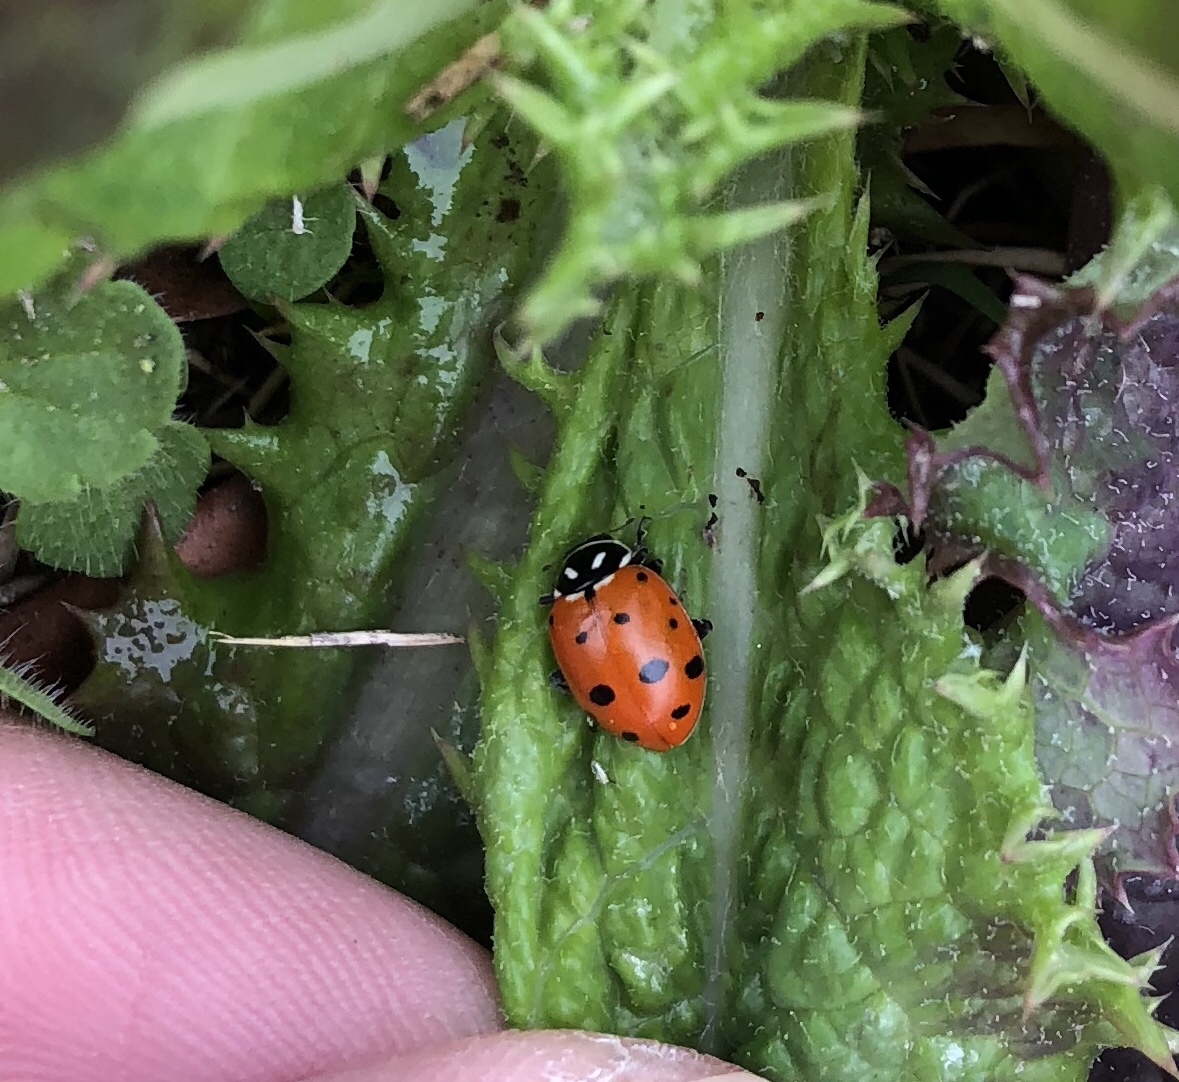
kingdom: Animalia
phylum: Arthropoda
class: Insecta
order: Coleoptera
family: Coccinellidae
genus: Hippodamia
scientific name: Hippodamia convergens
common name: Convergent lady beetle
